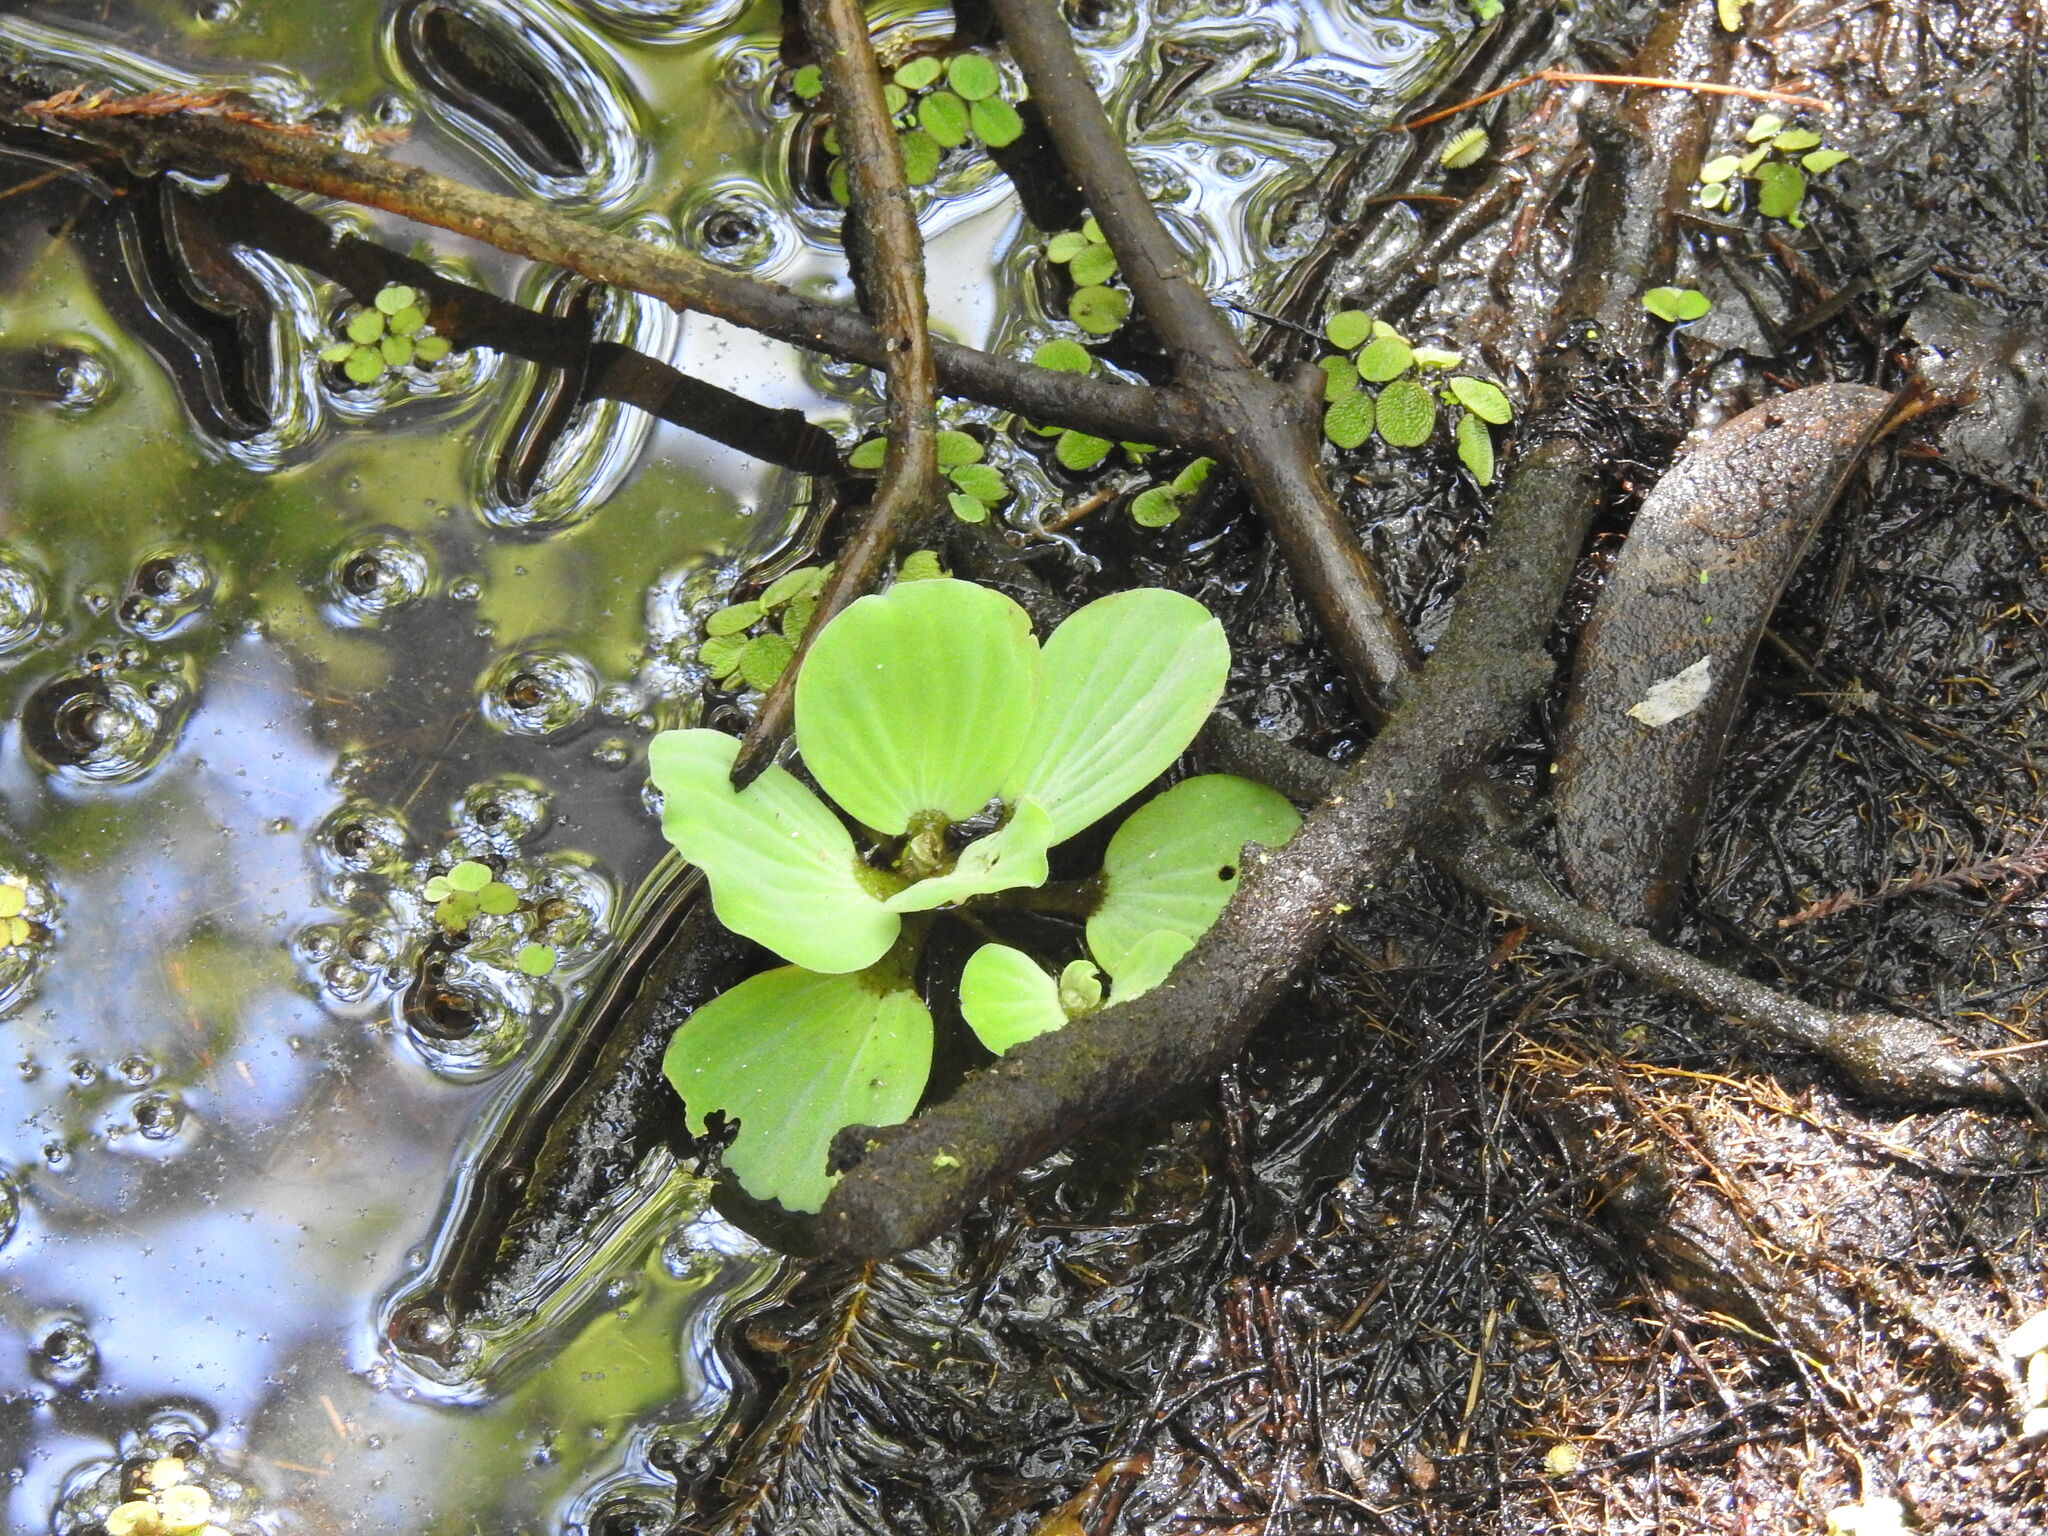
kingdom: Plantae
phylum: Tracheophyta
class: Liliopsida
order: Alismatales
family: Araceae
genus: Pistia
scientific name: Pistia stratiotes
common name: Water lettuce
